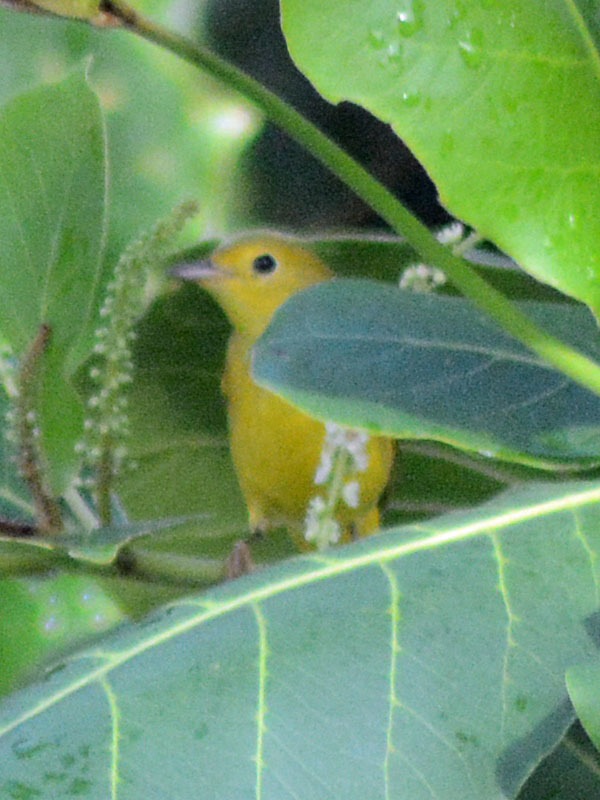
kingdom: Animalia
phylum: Chordata
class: Aves
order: Passeriformes
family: Parulidae
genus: Setophaga
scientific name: Setophaga petechia
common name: Yellow warbler
